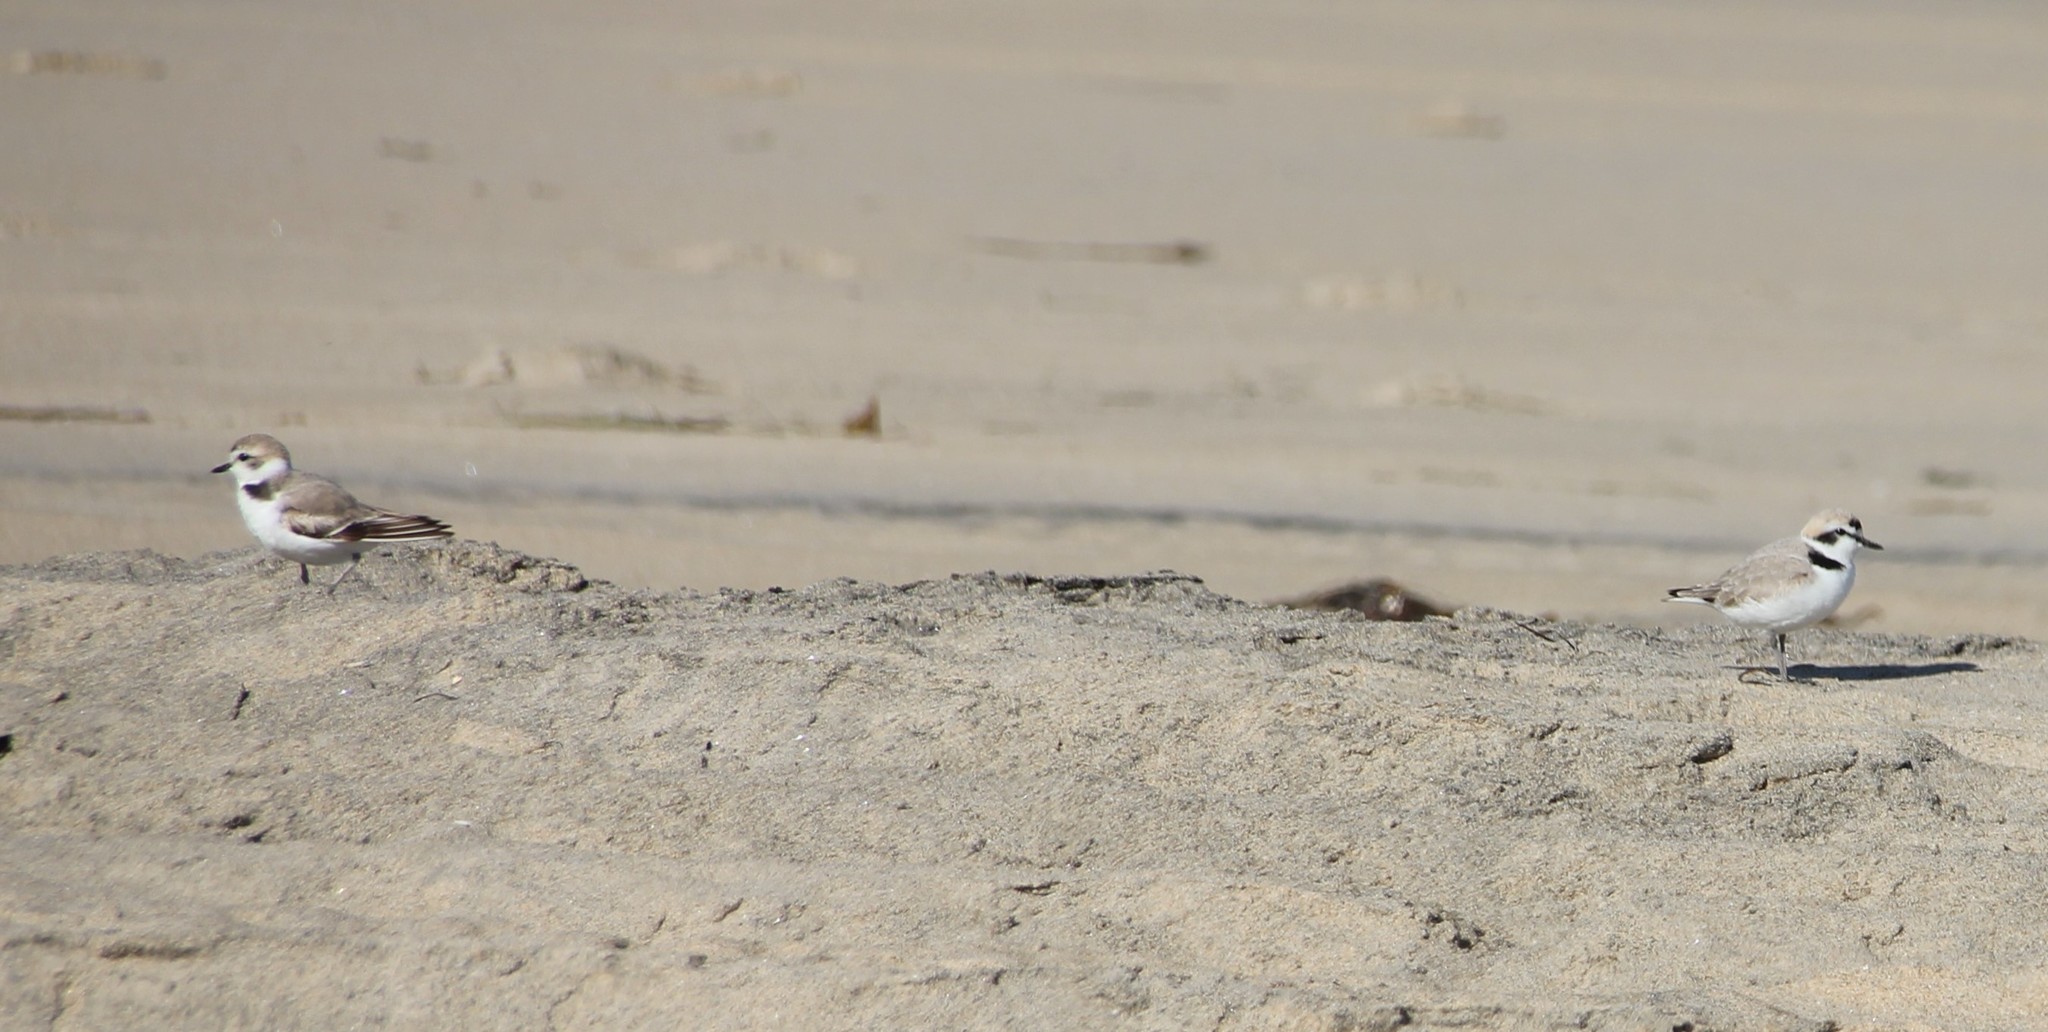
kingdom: Animalia
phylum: Chordata
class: Aves
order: Charadriiformes
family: Charadriidae
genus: Anarhynchus
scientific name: Anarhynchus
